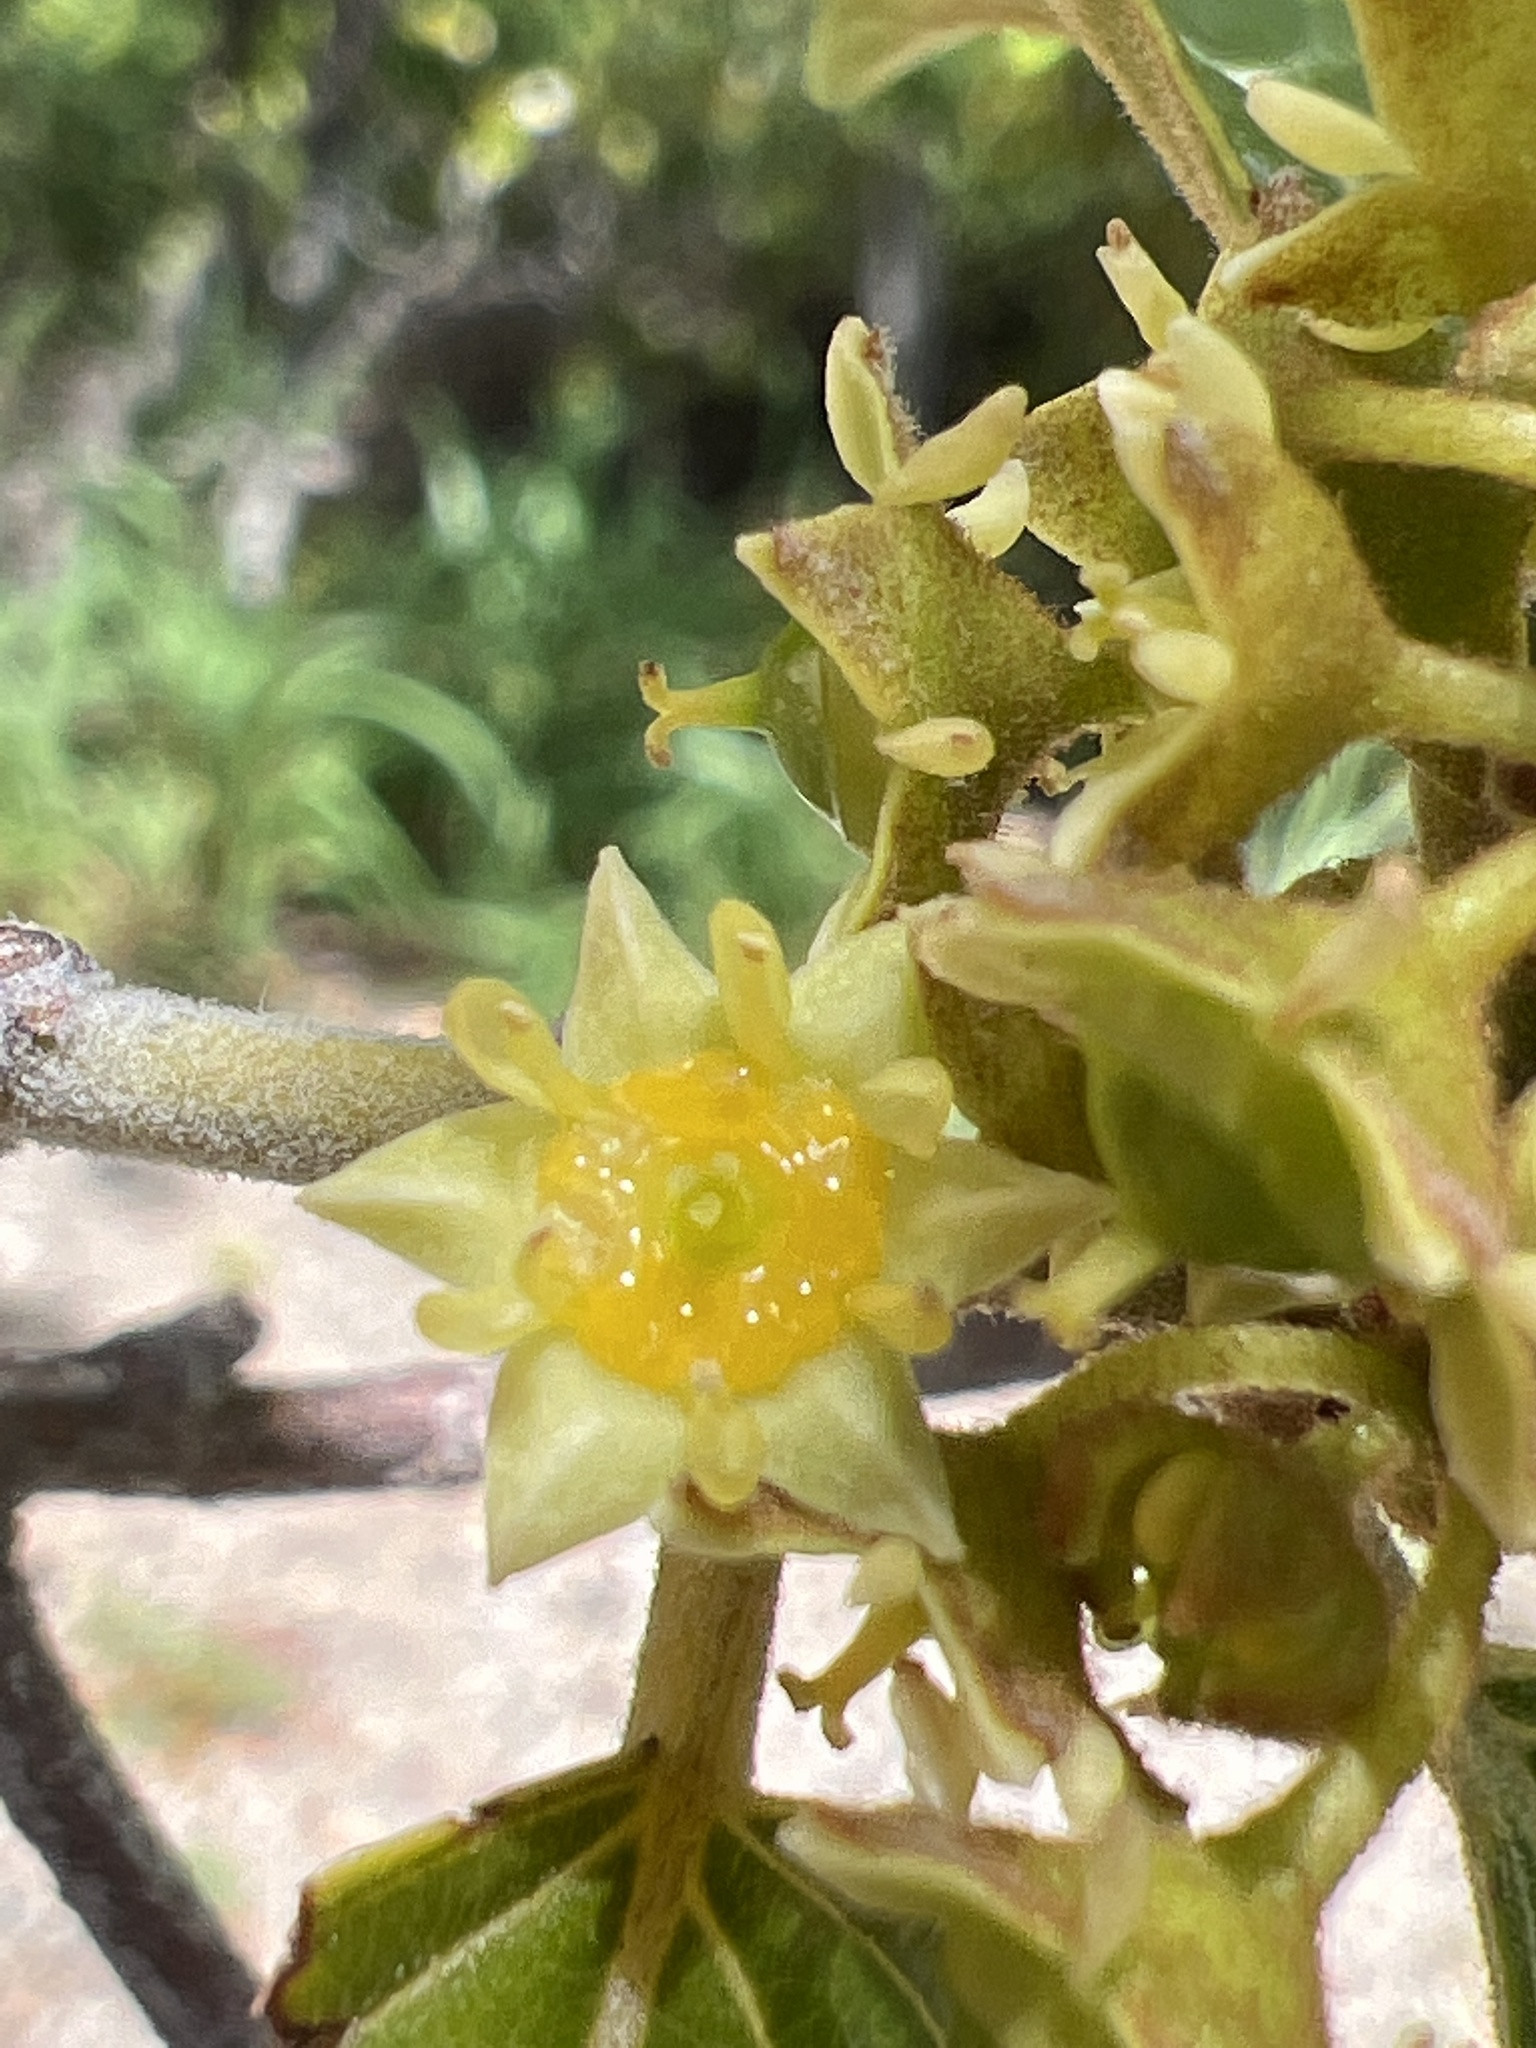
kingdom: Plantae
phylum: Tracheophyta
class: Magnoliopsida
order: Rosales
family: Rhamnaceae
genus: Colubrina
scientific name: Colubrina arborescens
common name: Wild coffee
